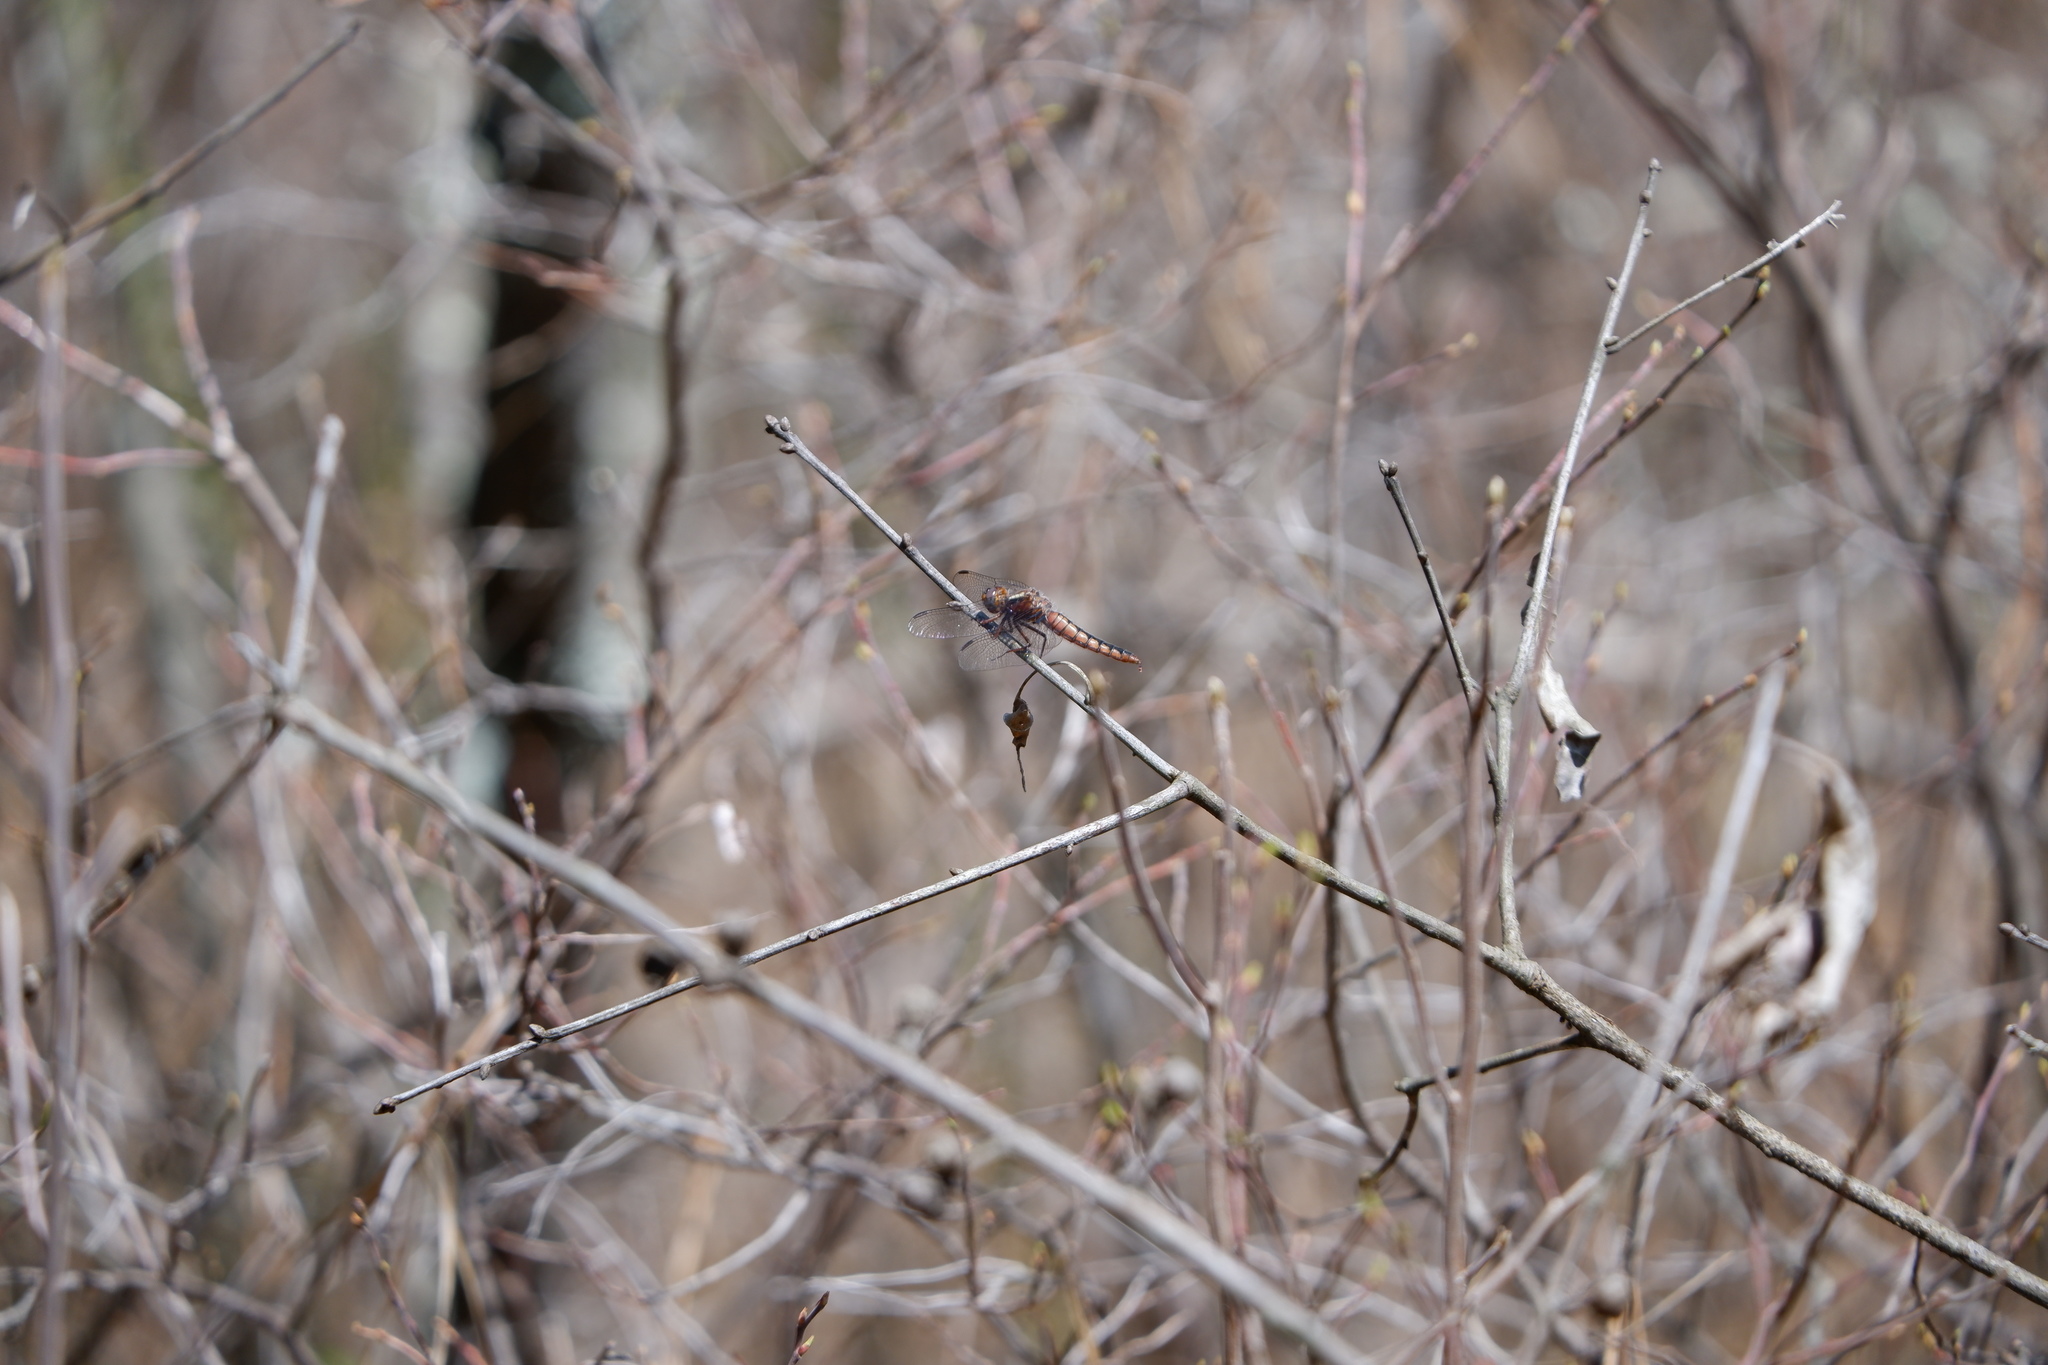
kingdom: Animalia
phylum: Arthropoda
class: Insecta
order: Odonata
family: Libellulidae
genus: Ladona
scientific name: Ladona deplanata
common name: Blue corporal
